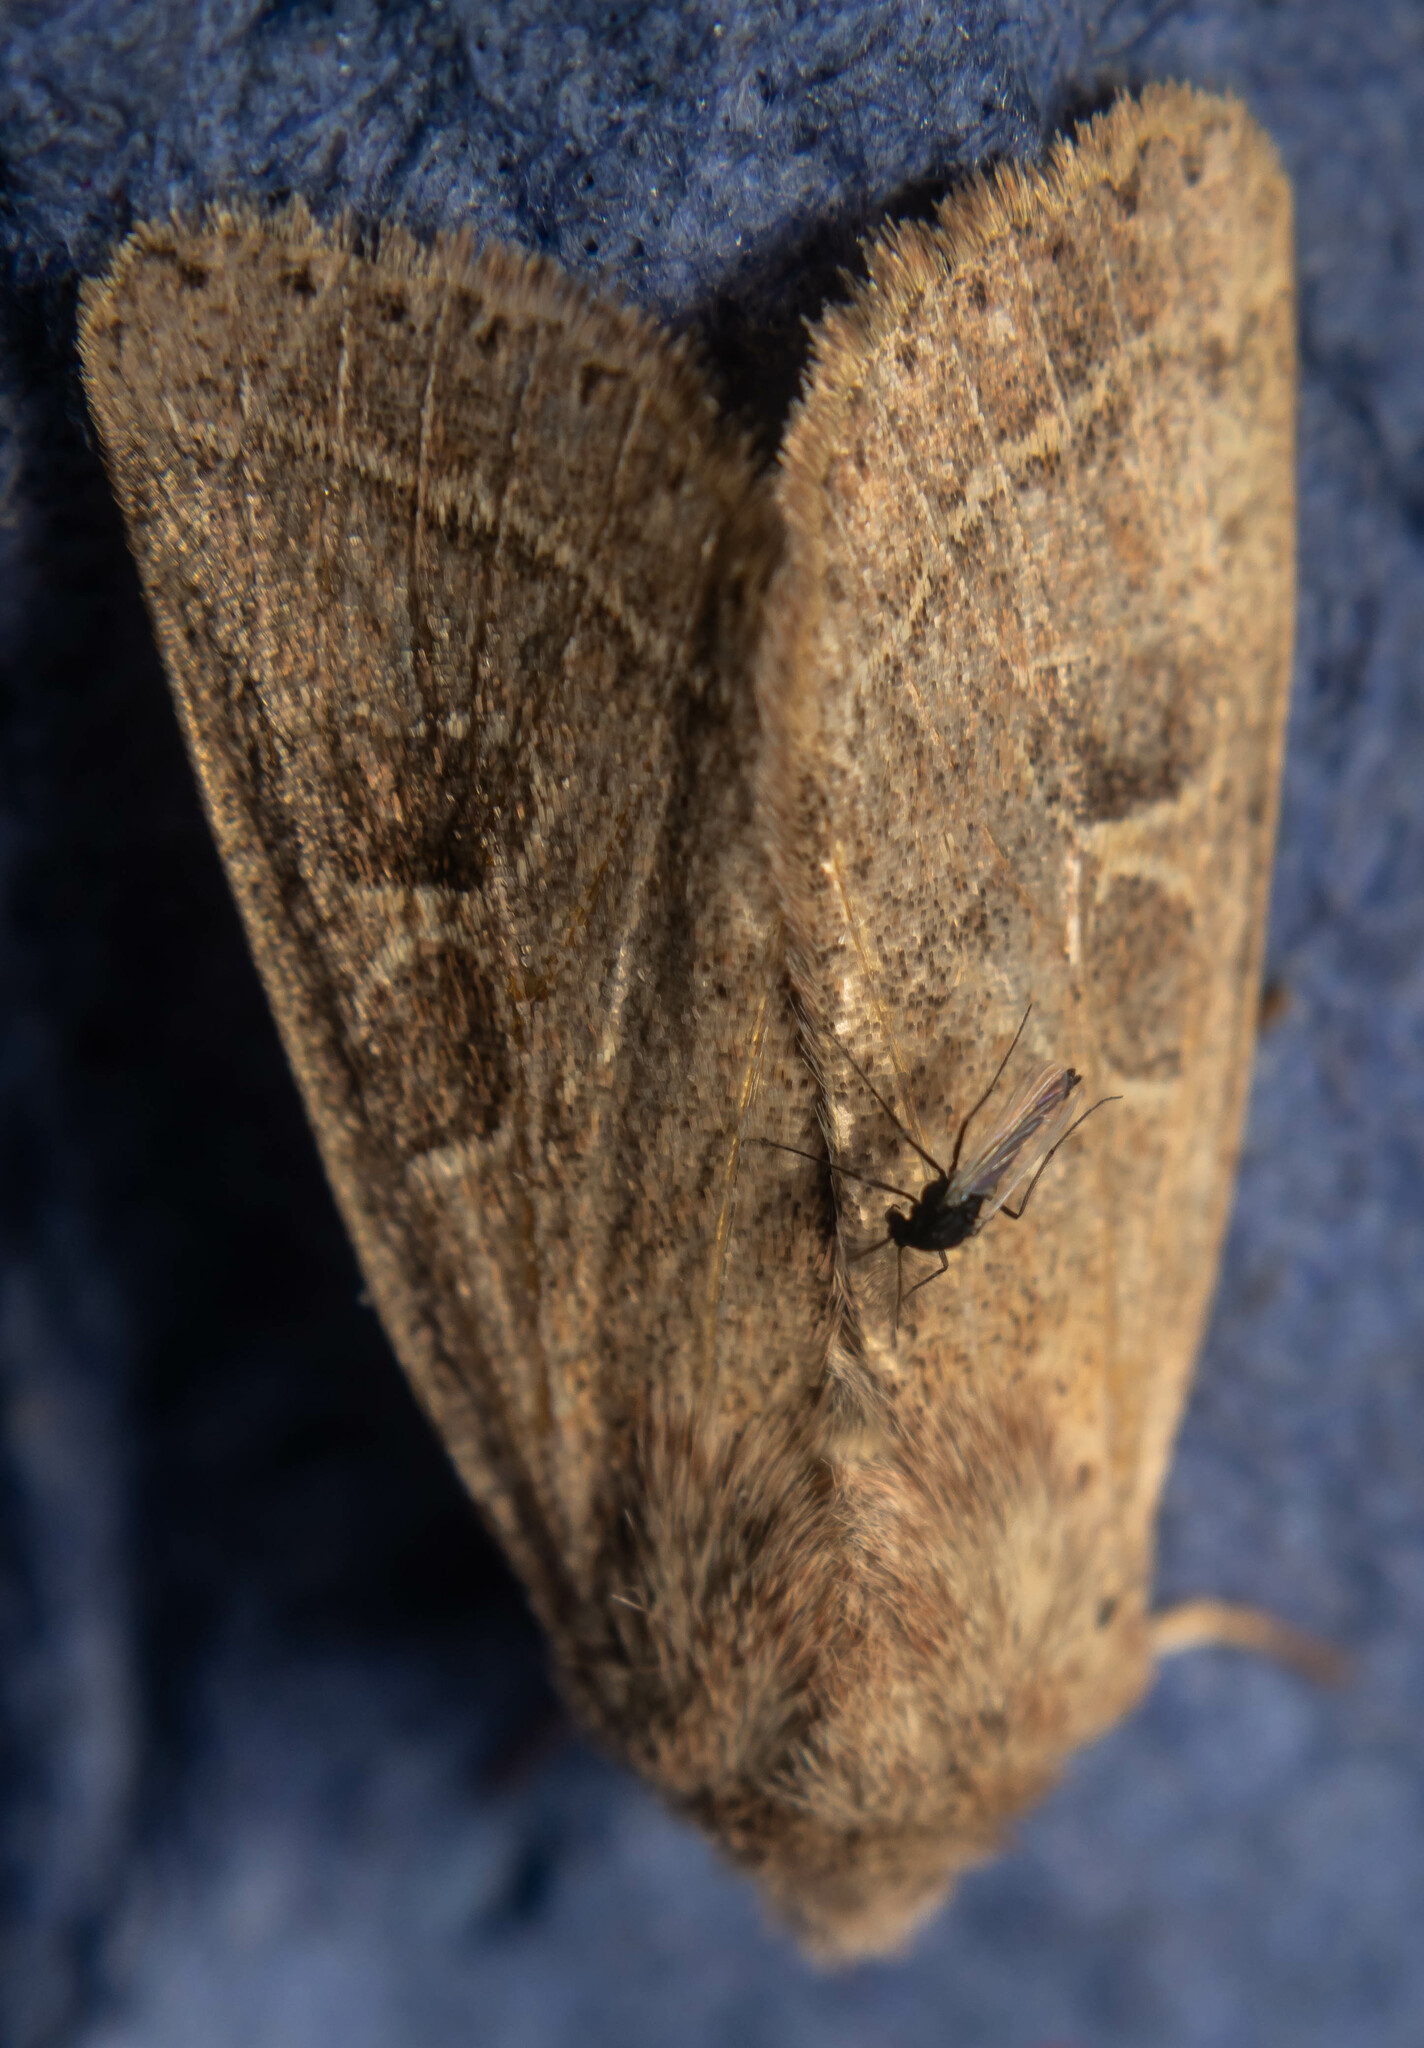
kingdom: Animalia
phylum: Arthropoda
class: Insecta
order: Lepidoptera
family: Noctuidae
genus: Orthosia
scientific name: Orthosia cerasi
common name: Common quaker
